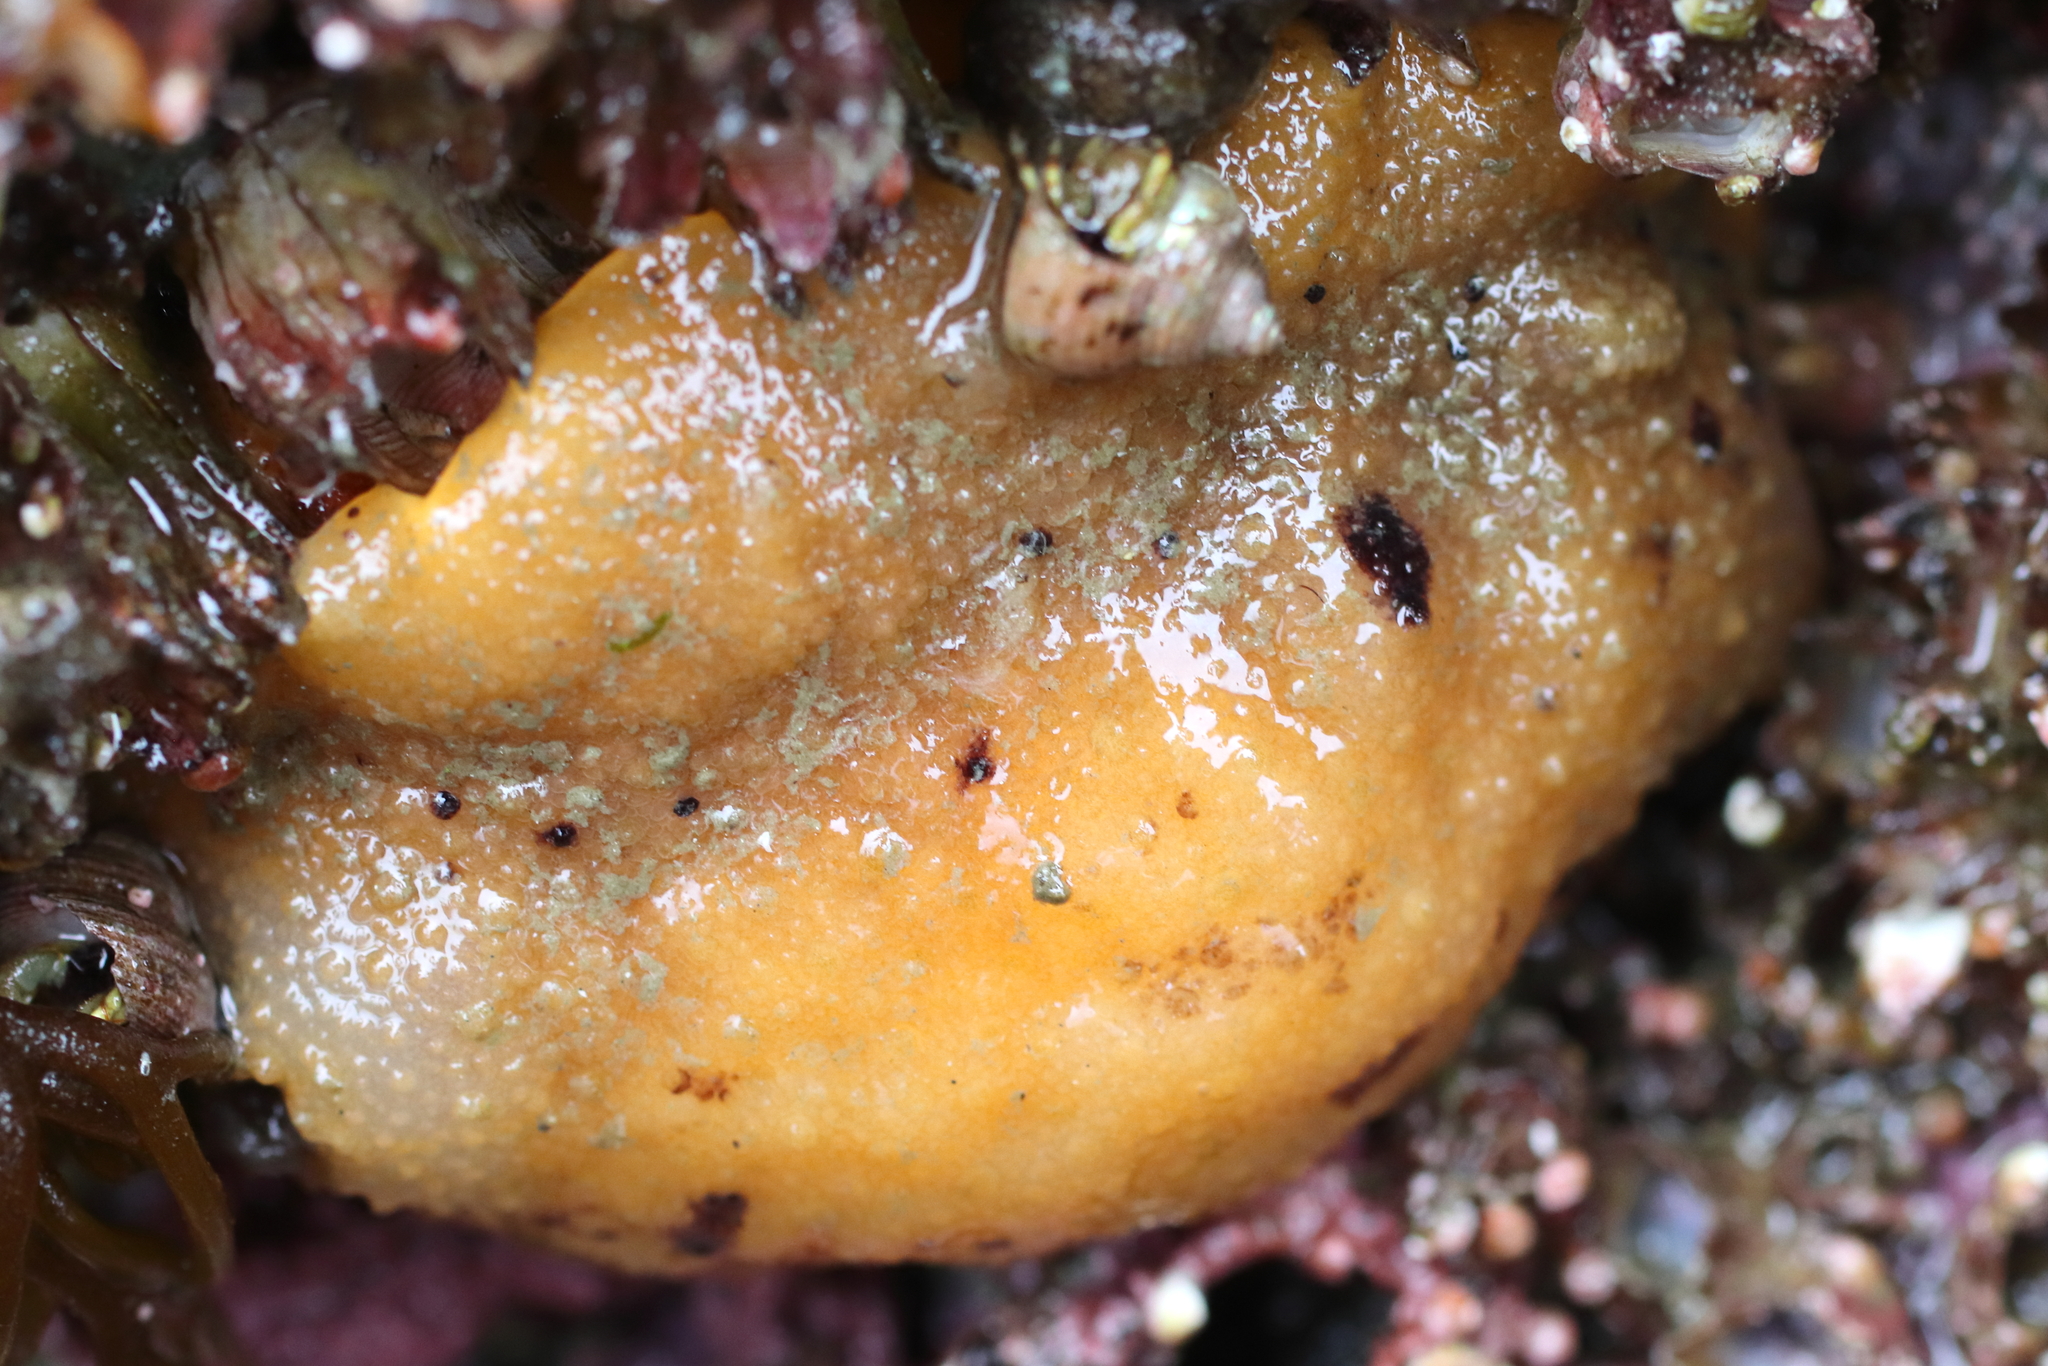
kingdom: Animalia
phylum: Mollusca
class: Gastropoda
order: Nudibranchia
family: Dorididae
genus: Doris
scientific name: Doris montereyensis
